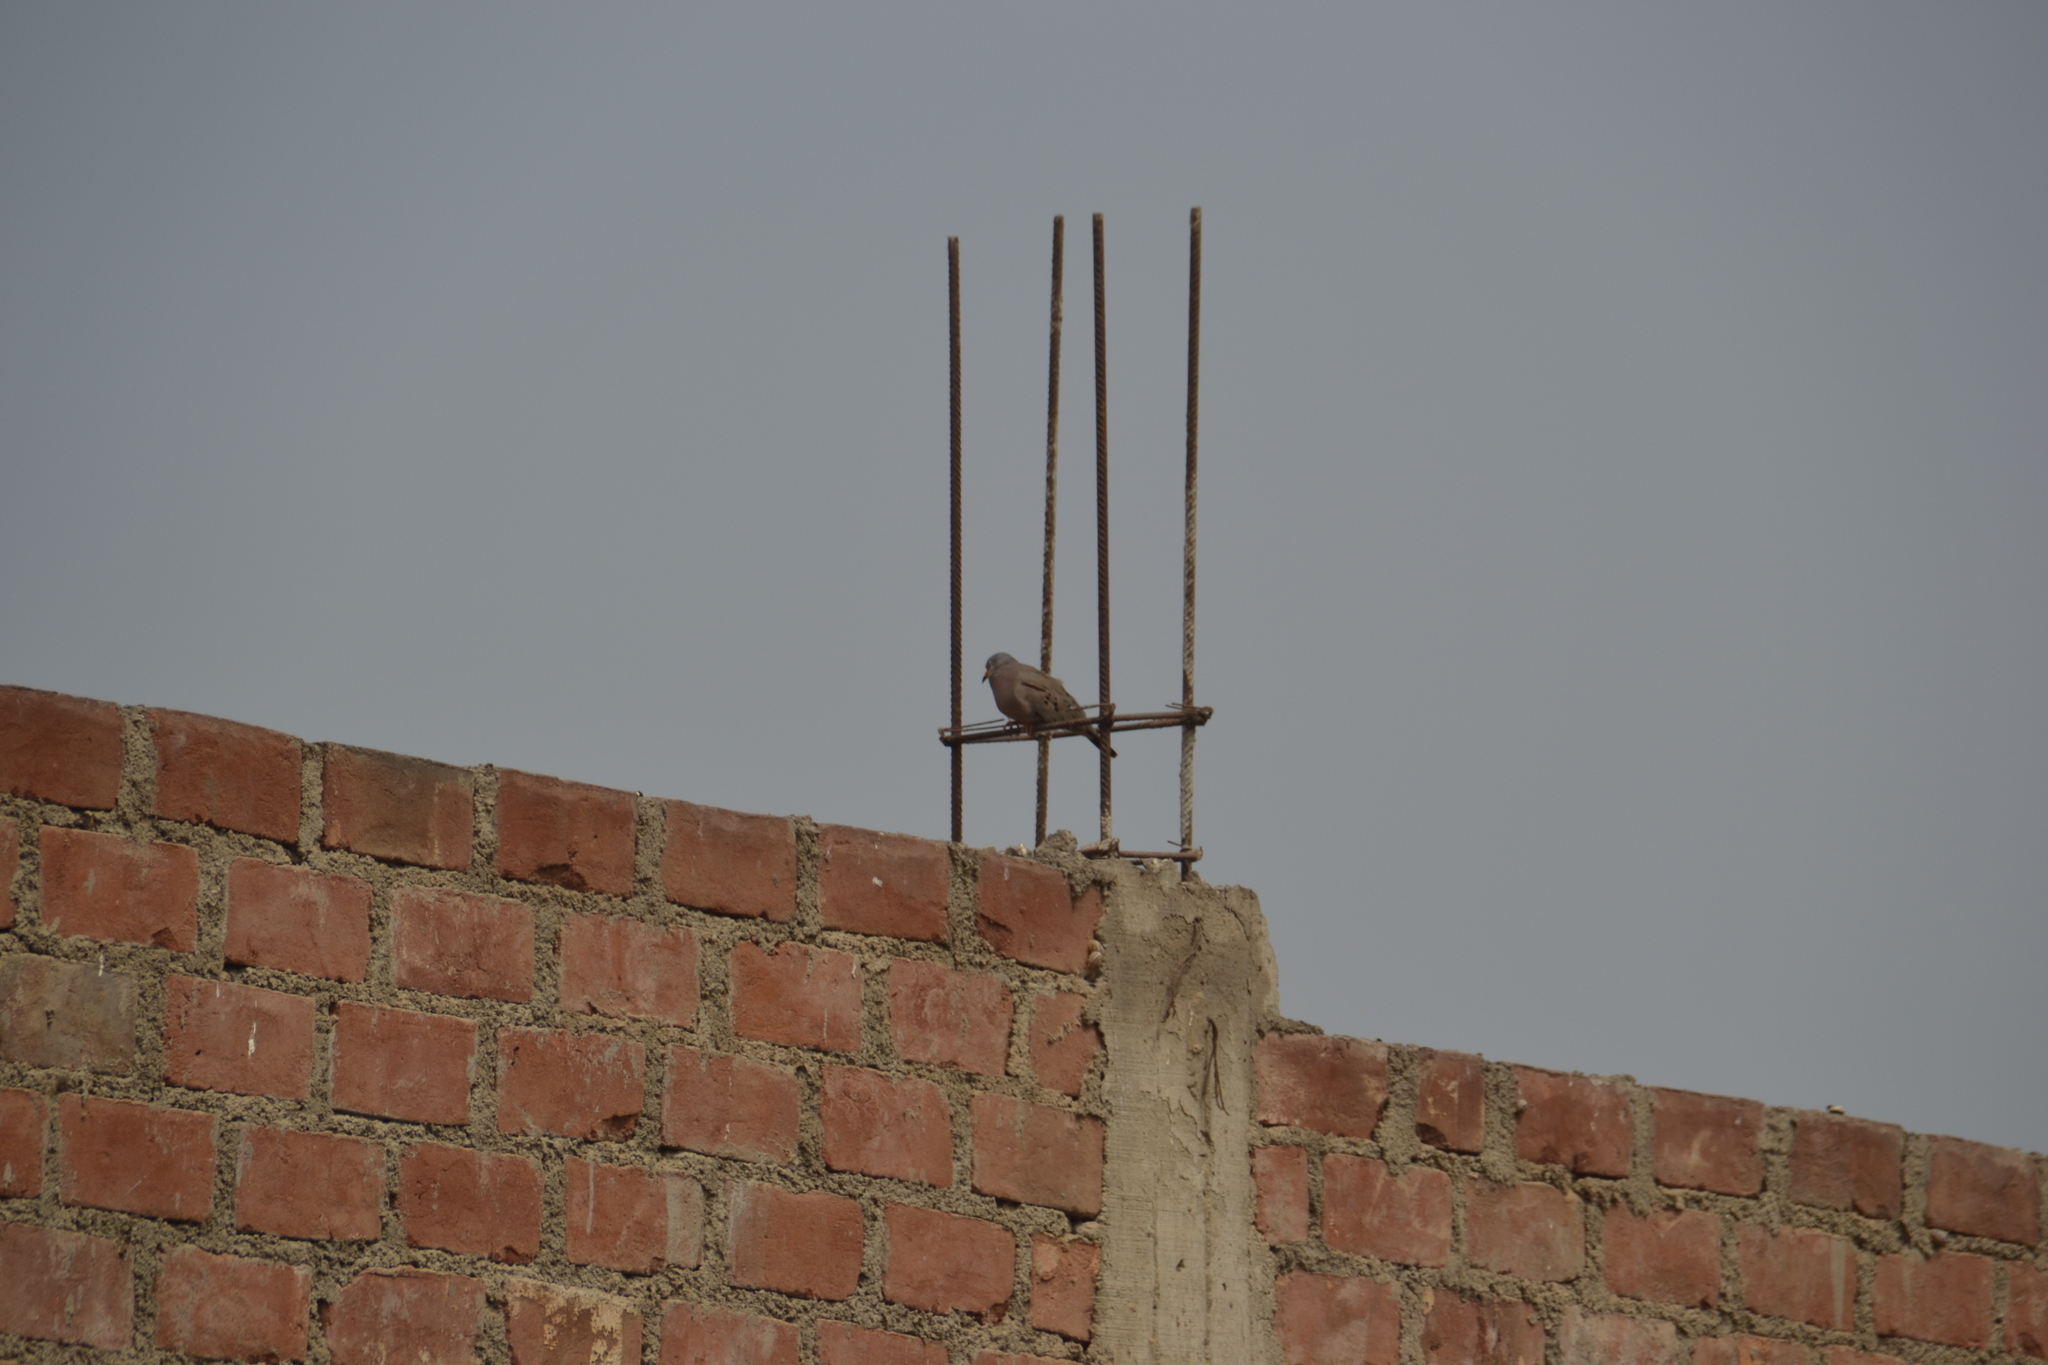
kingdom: Animalia
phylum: Chordata
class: Aves
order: Columbiformes
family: Columbidae
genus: Columbina
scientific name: Columbina cruziana
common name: Croaking ground dove
